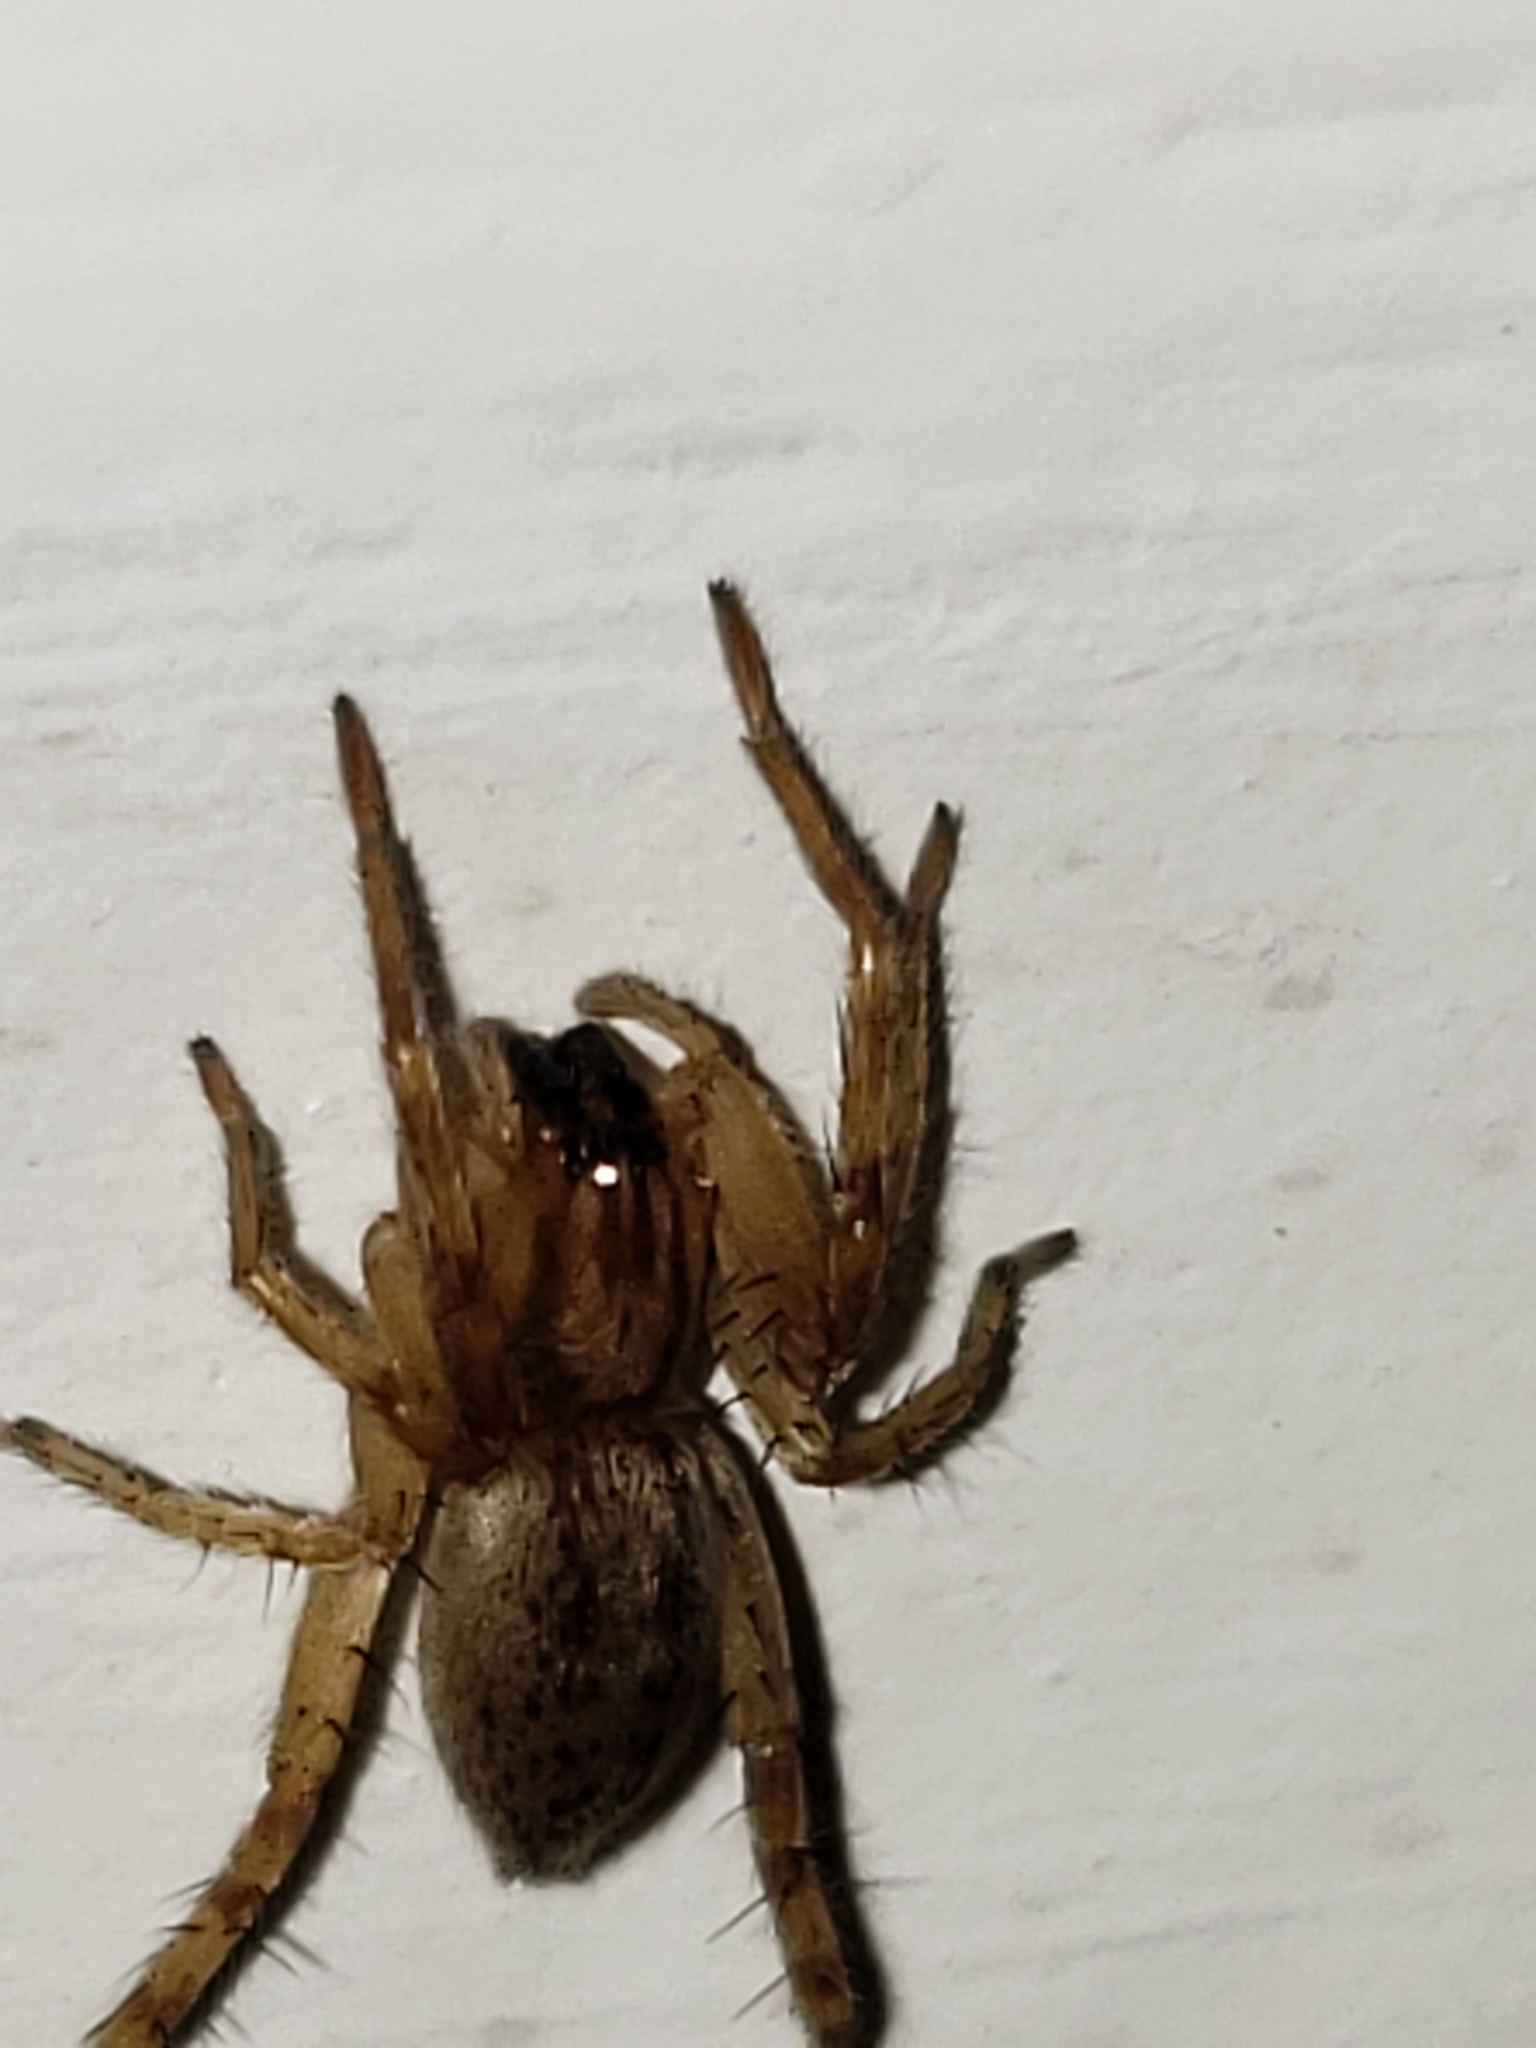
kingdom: Animalia
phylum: Arthropoda
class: Arachnida
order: Araneae
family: Anyphaenidae
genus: Hibana
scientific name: Hibana gracilis
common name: Garden ghost spider
